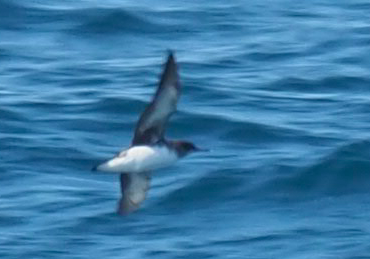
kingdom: Animalia
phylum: Chordata
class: Aves
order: Procellariiformes
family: Procellariidae
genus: Puffinus
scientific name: Puffinus gavia
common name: Fluttering shearwater
